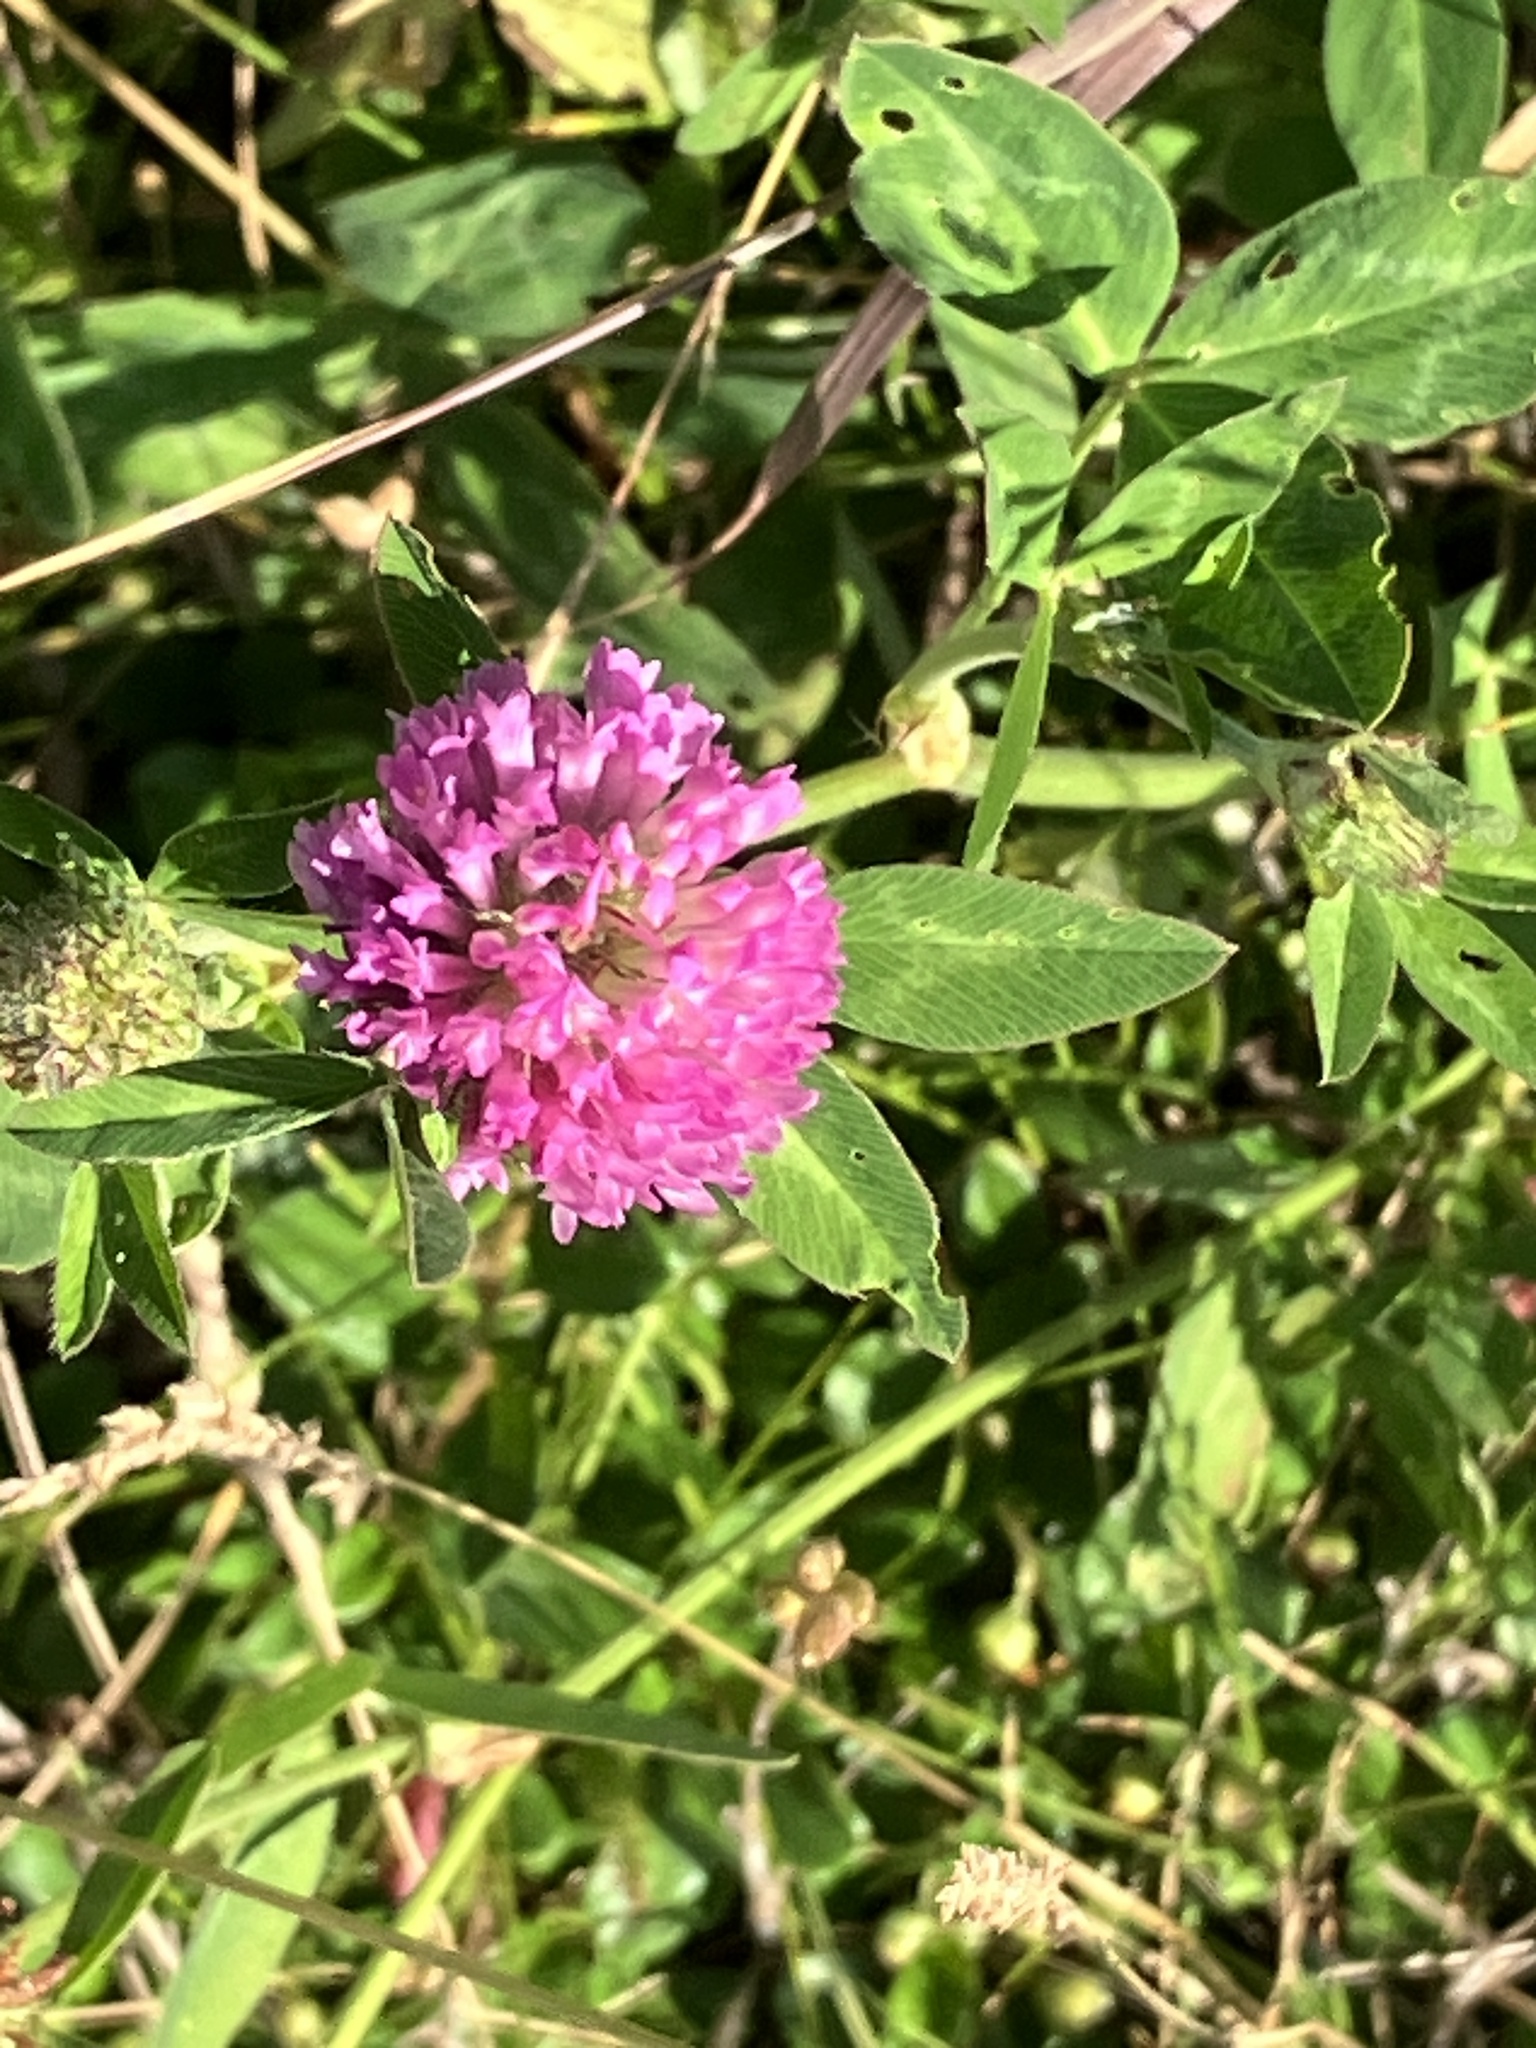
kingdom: Plantae
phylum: Tracheophyta
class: Magnoliopsida
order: Fabales
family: Fabaceae
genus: Trifolium
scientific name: Trifolium pratense
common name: Red clover
